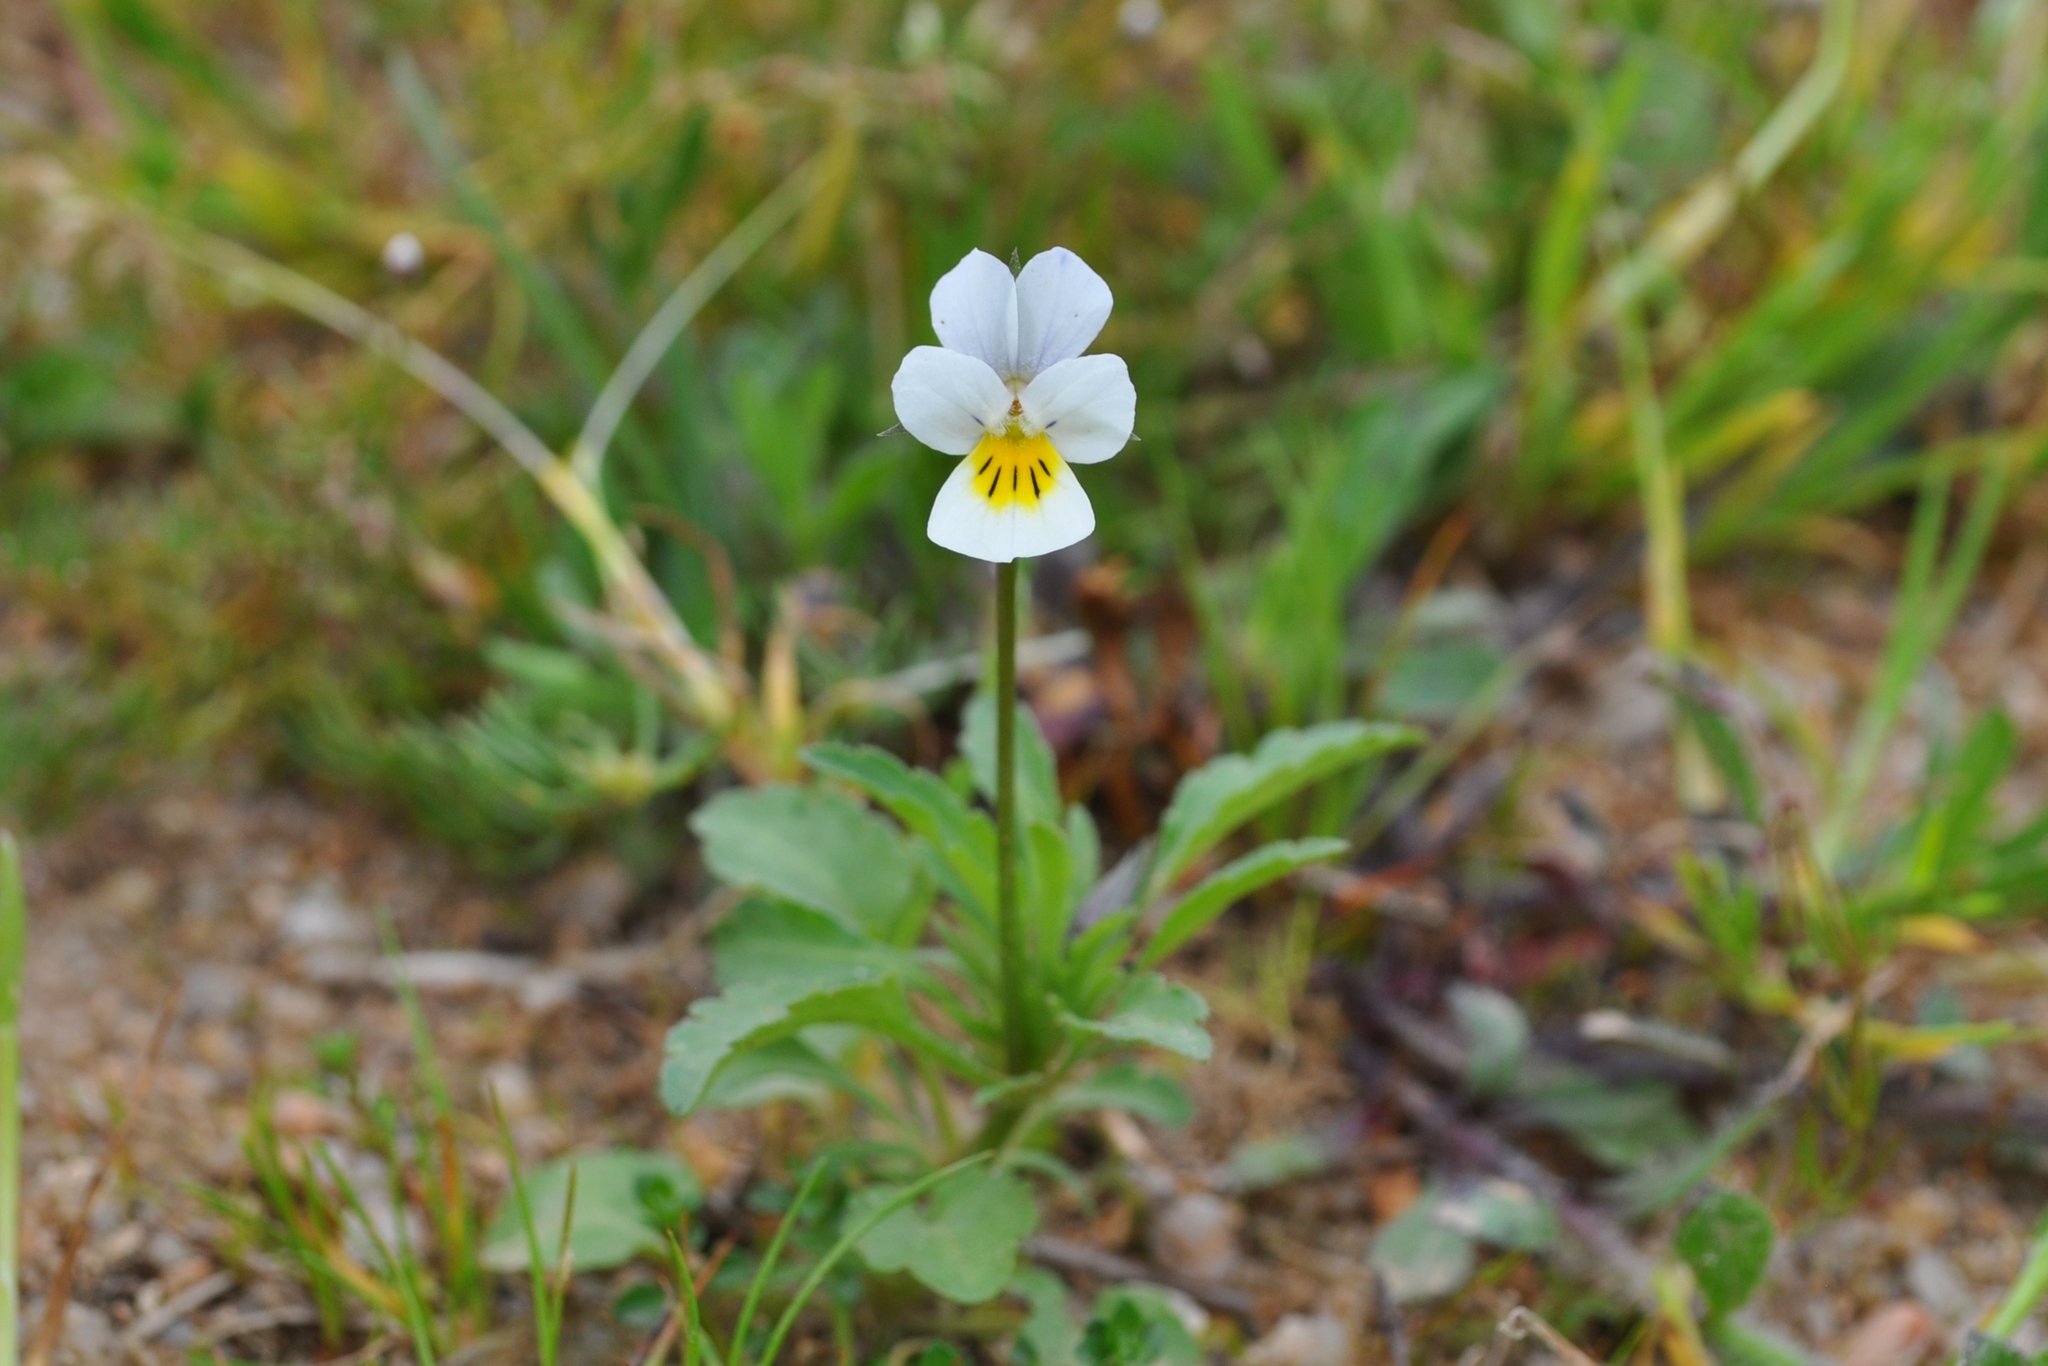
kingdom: Plantae
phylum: Tracheophyta
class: Magnoliopsida
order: Malpighiales
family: Violaceae
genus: Viola
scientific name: Viola arvensis
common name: Field pansy
